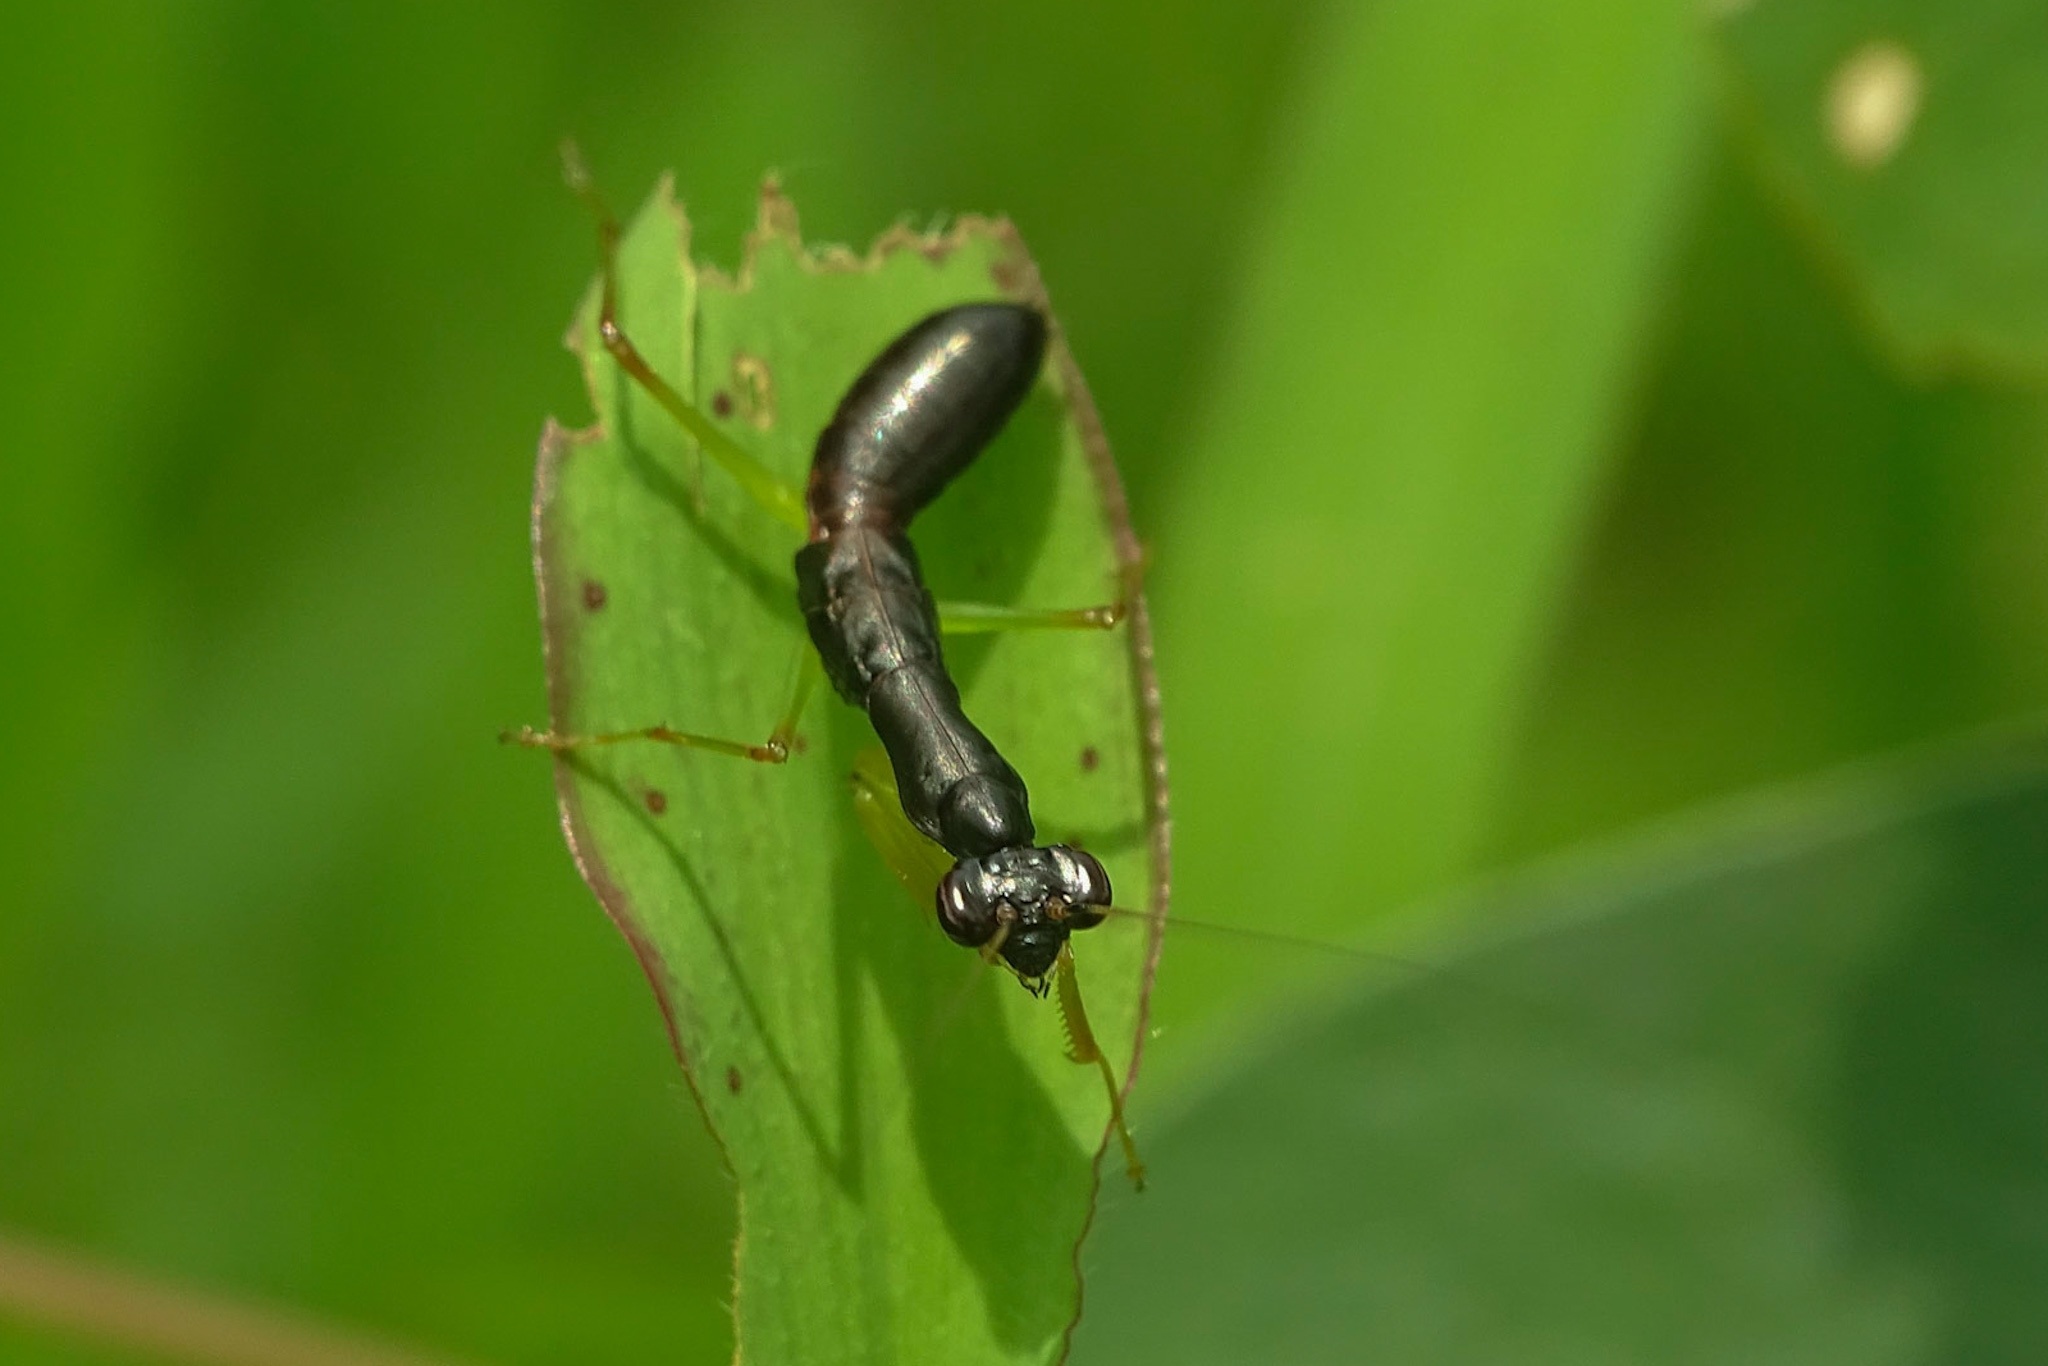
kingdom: Animalia
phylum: Arthropoda
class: Insecta
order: Mantodea
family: Hymenopodidae
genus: Odontomantis
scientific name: Odontomantis planiceps
